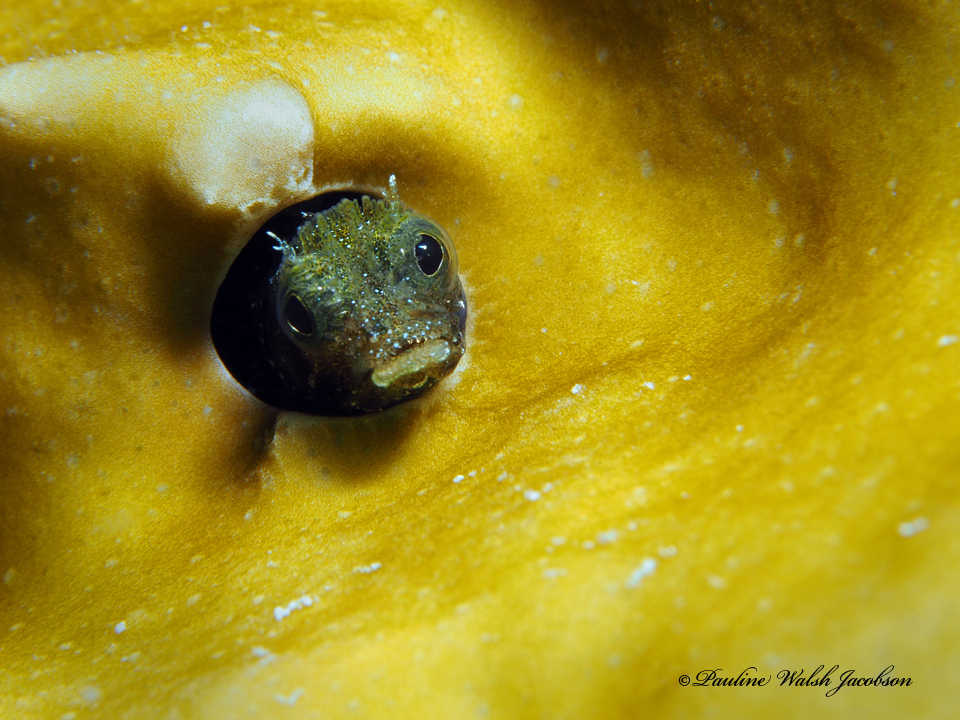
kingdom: Animalia
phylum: Chordata
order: Perciformes
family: Chaenopsidae
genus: Acanthemblemaria
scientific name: Acanthemblemaria spinosa
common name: Spinyhead blenny
